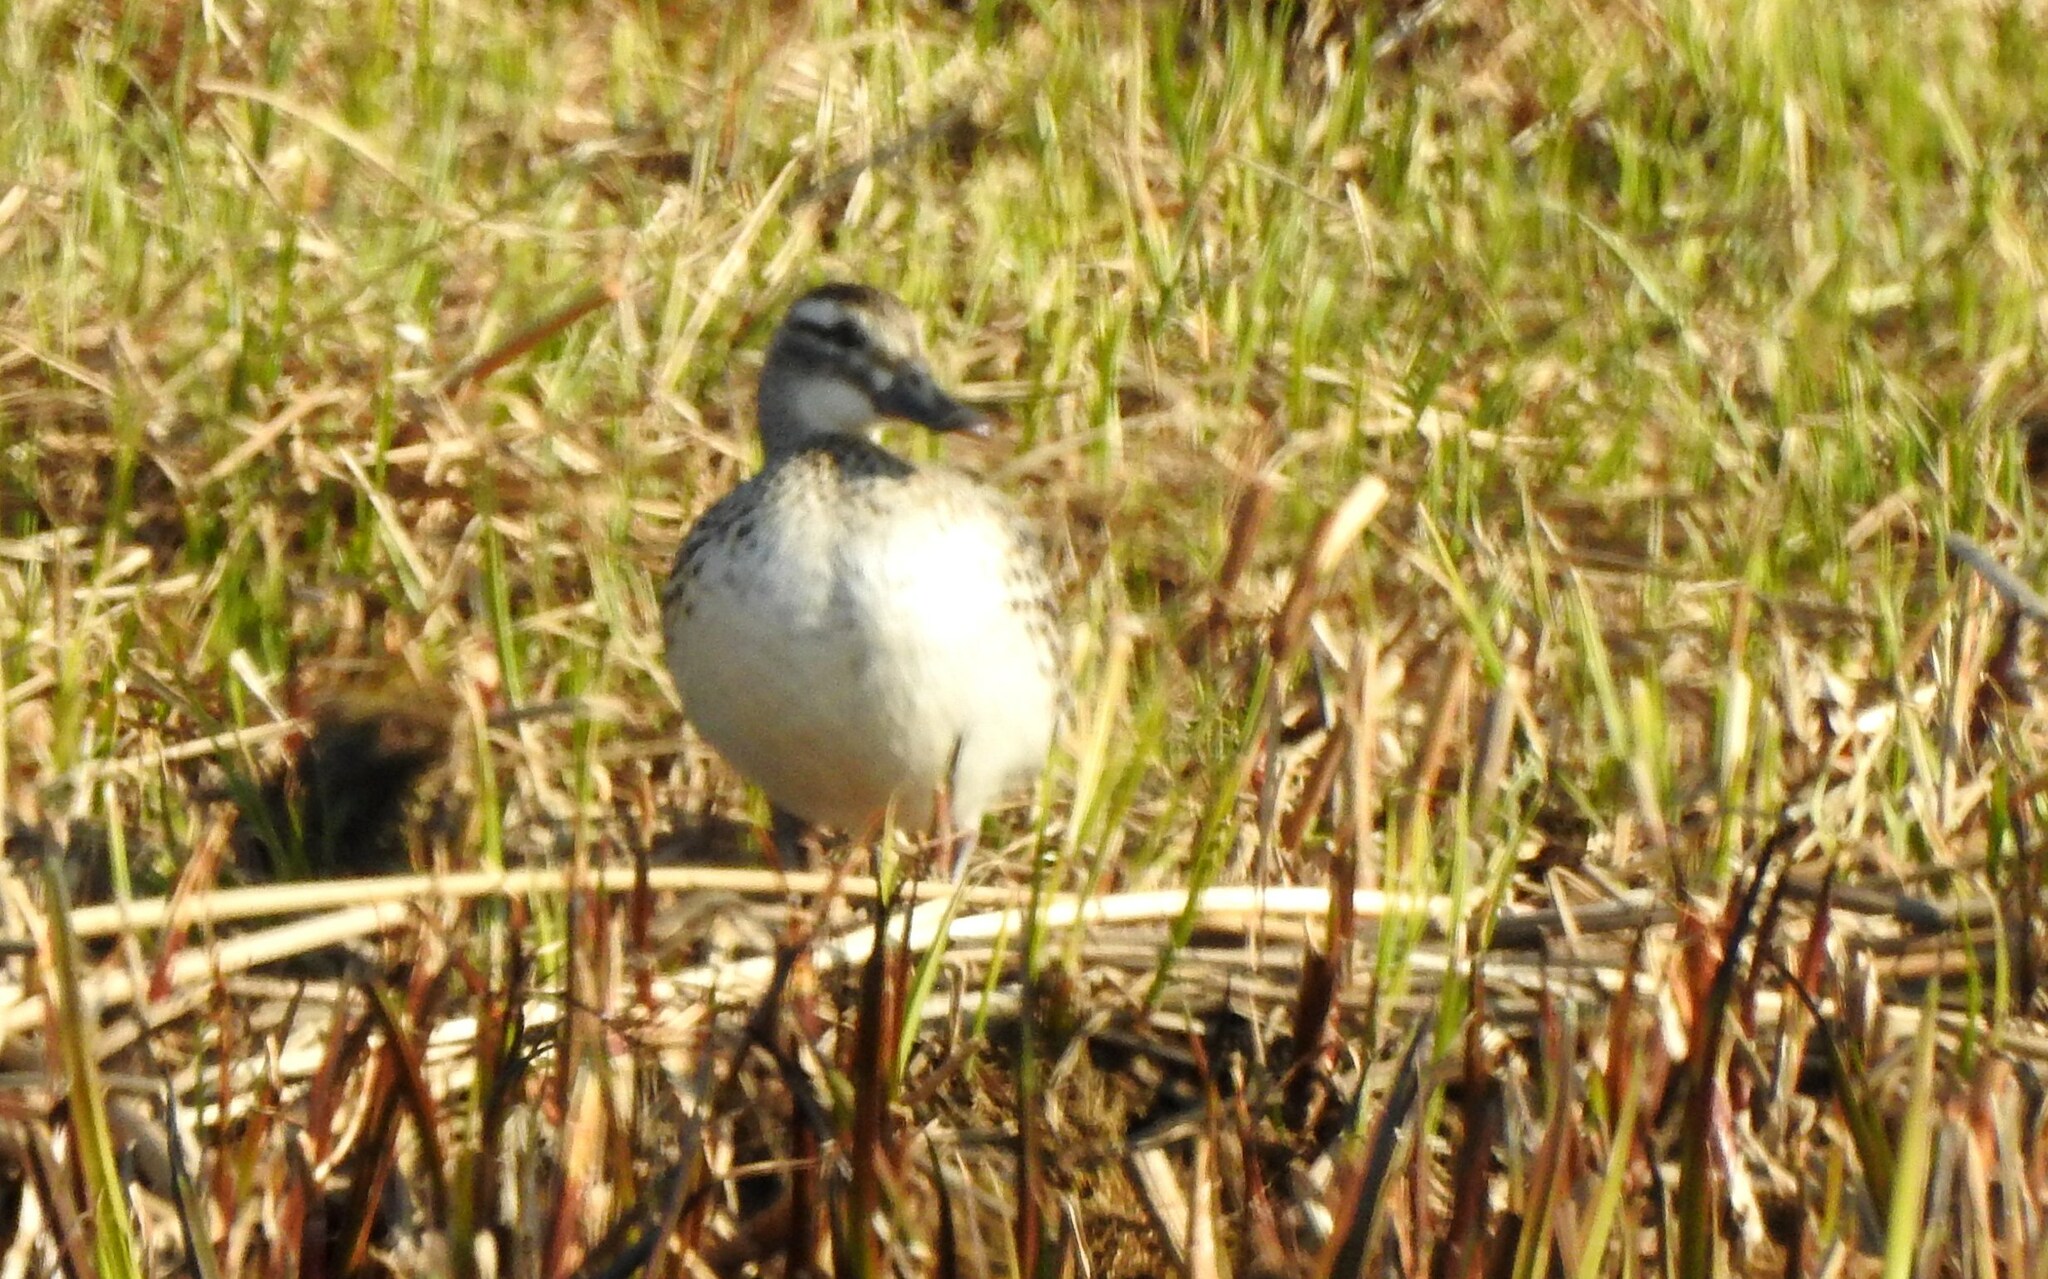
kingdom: Animalia
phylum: Chordata
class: Aves
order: Anseriformes
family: Anatidae
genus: Spatula
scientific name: Spatula querquedula
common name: Garganey
